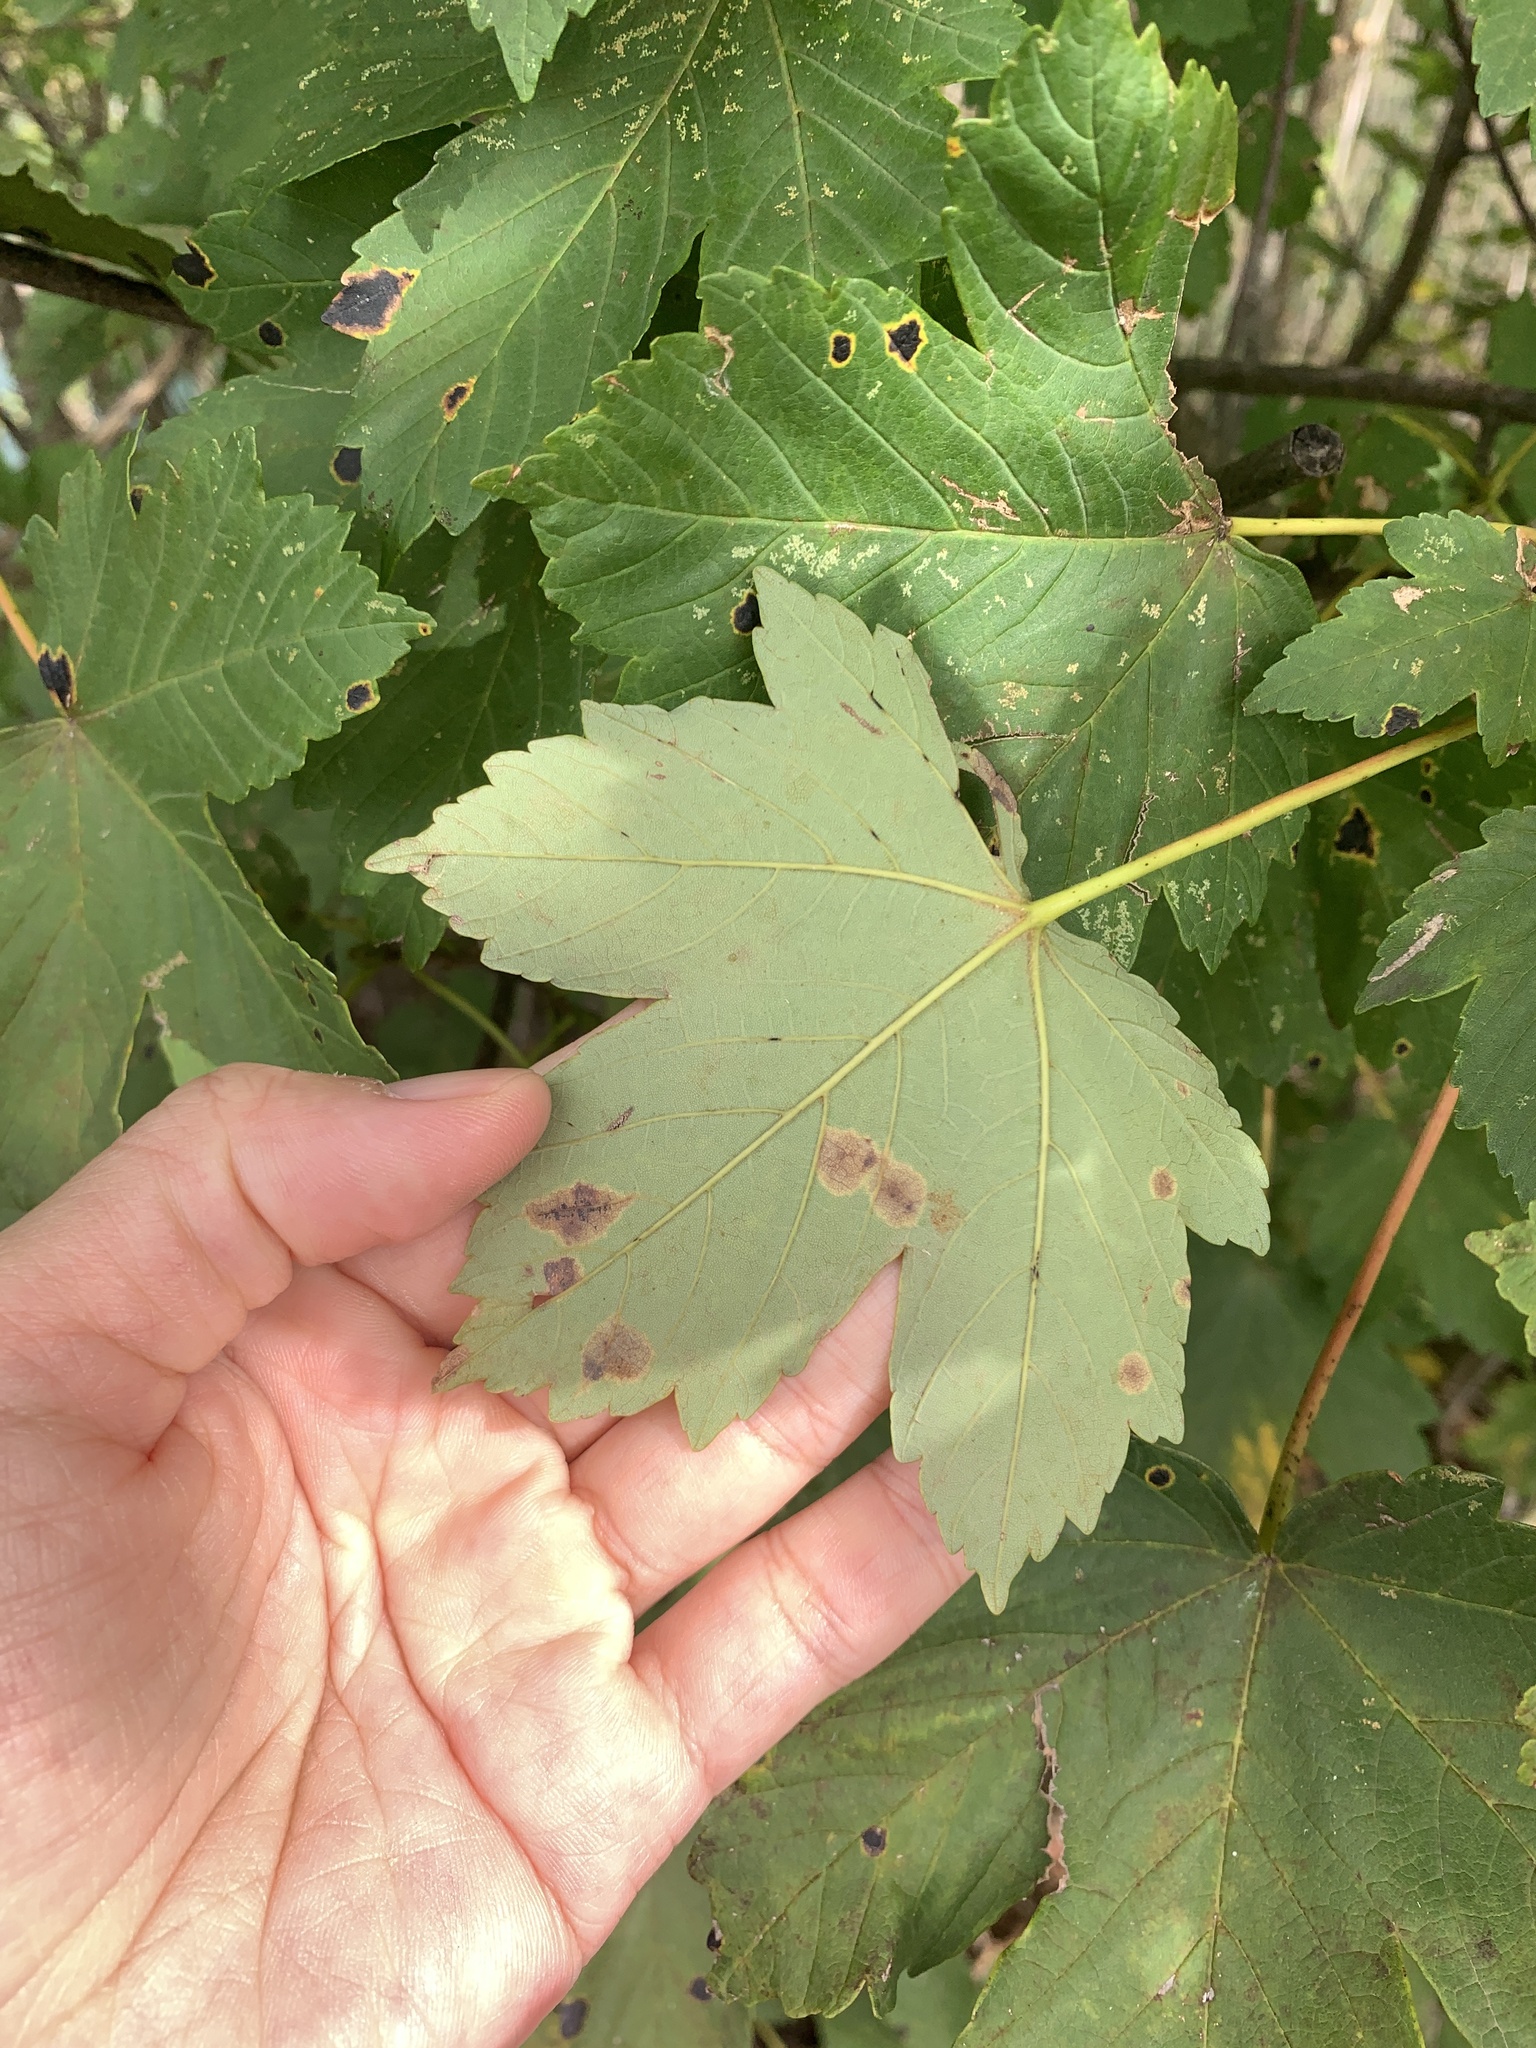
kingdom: Plantae
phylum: Tracheophyta
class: Magnoliopsida
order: Sapindales
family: Sapindaceae
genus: Acer
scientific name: Acer pseudoplatanus
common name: Sycamore
